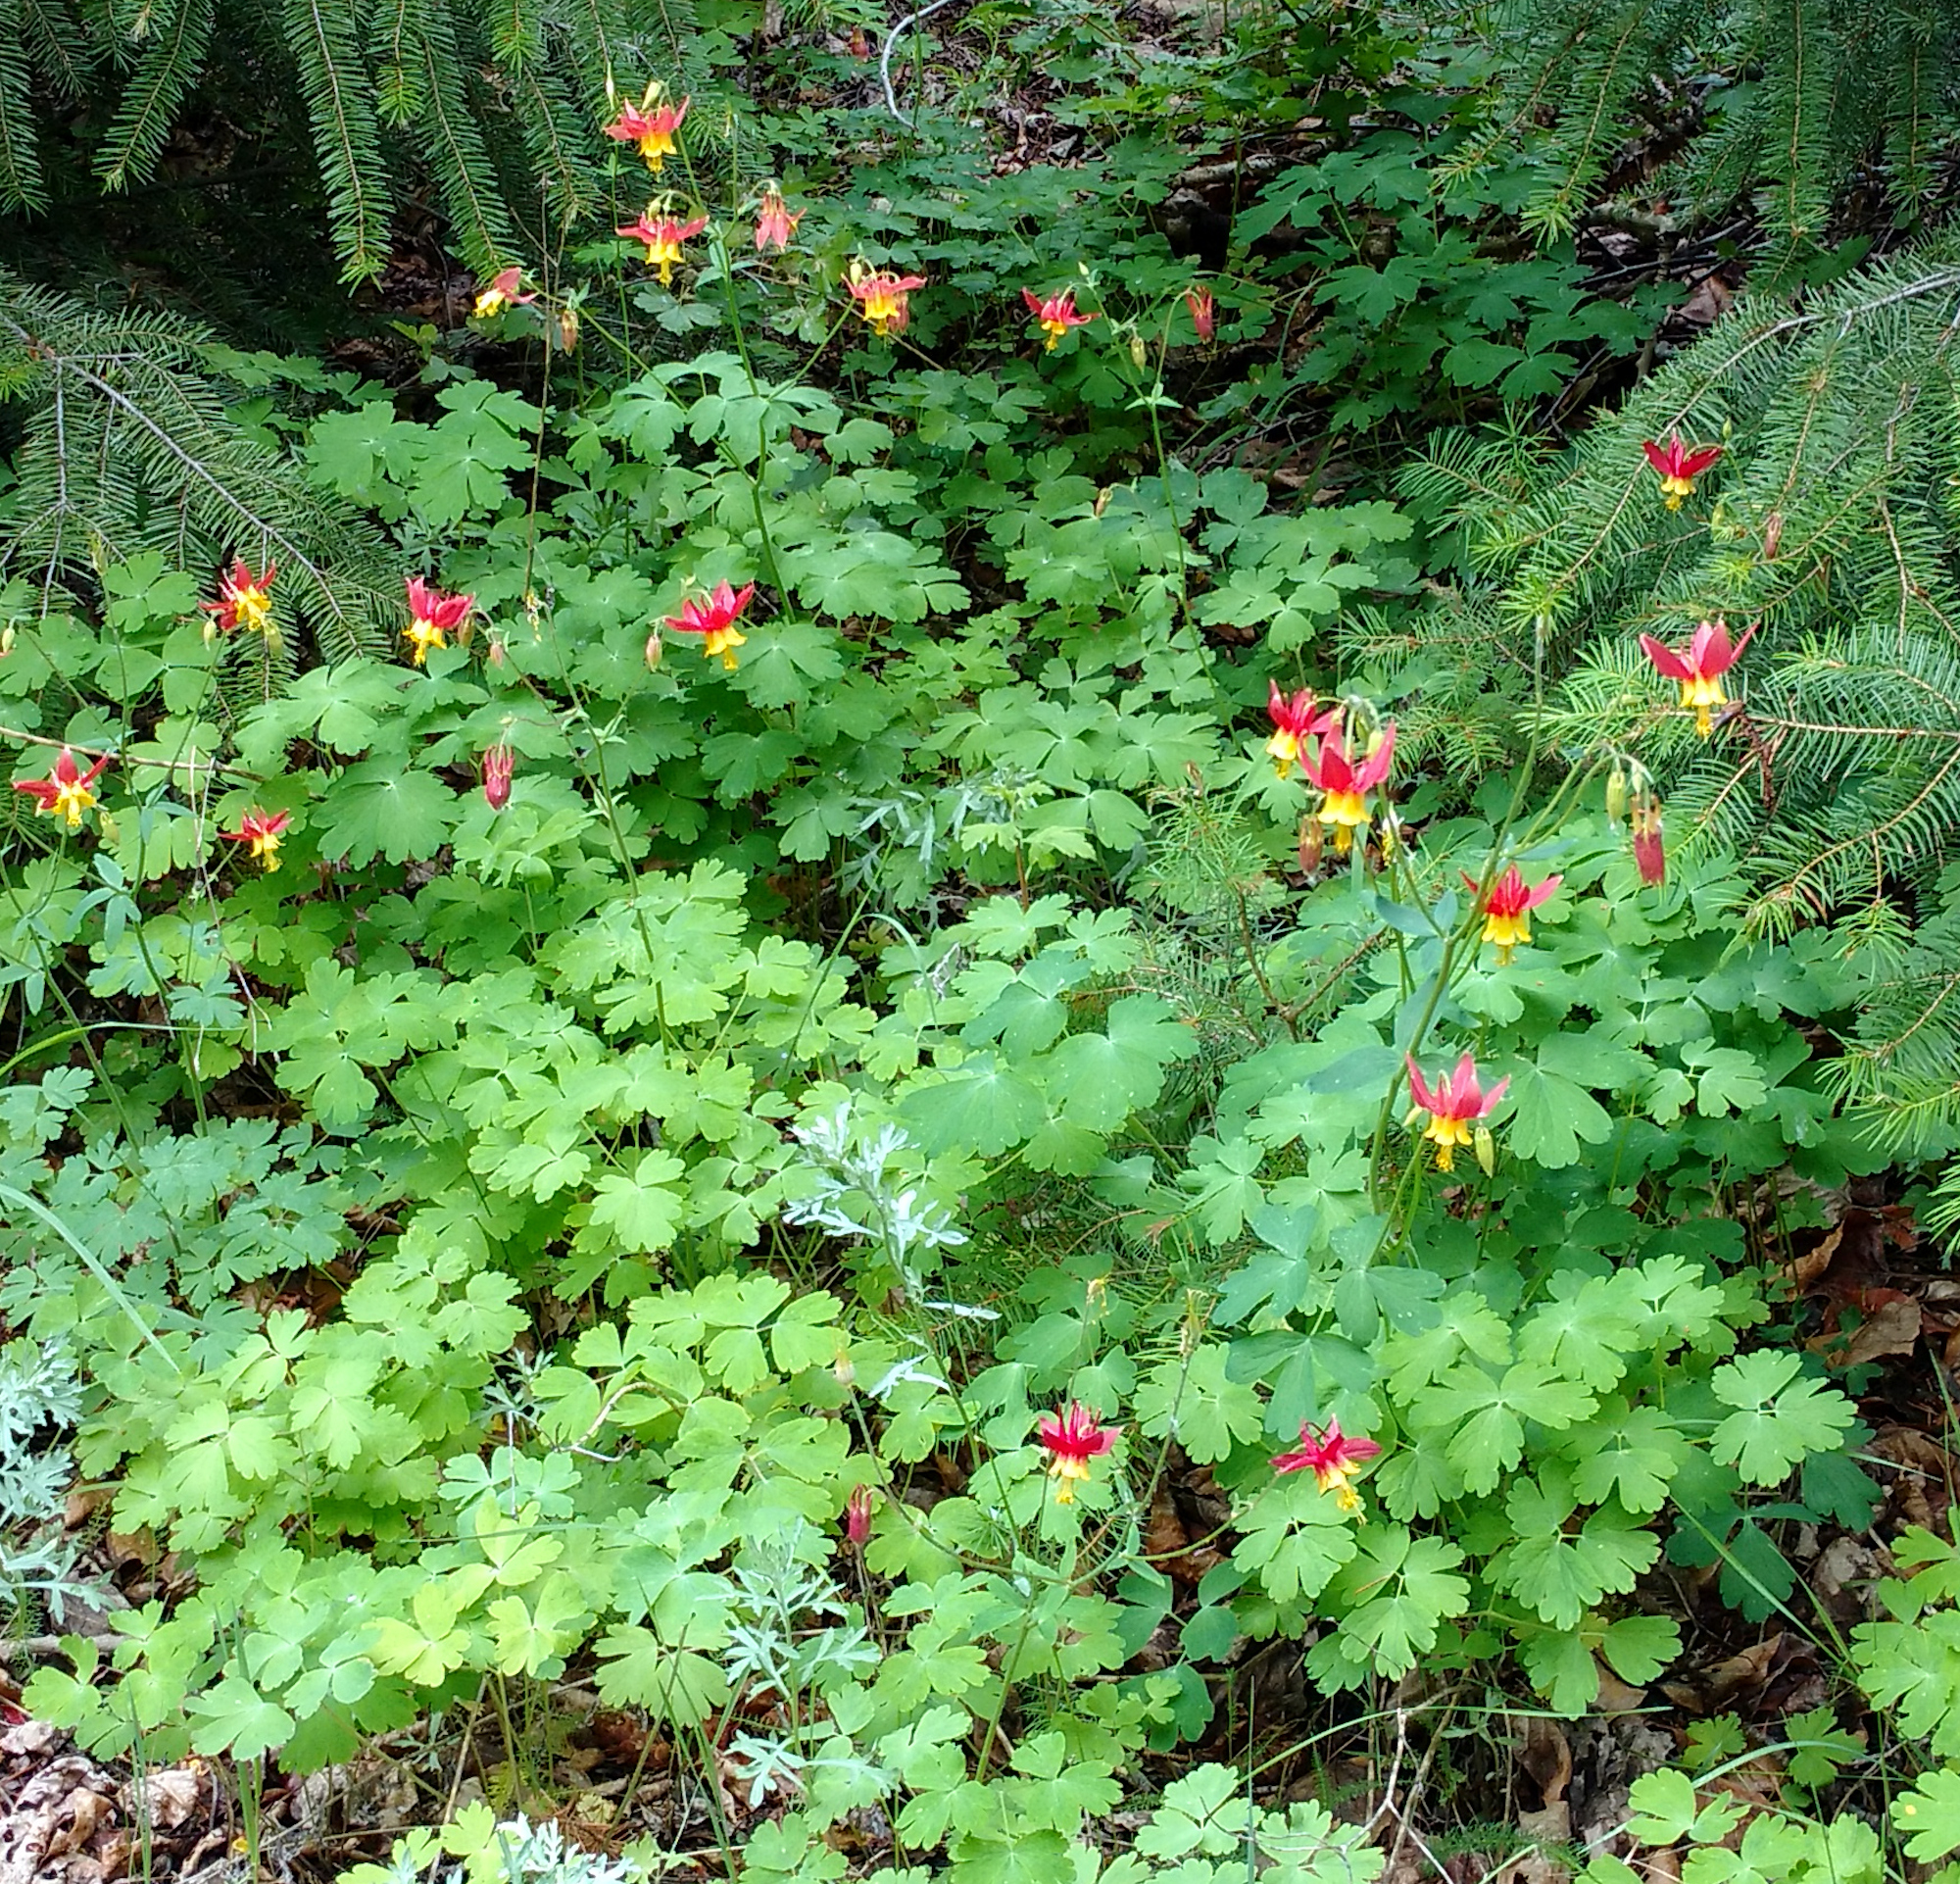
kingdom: Plantae
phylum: Tracheophyta
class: Magnoliopsida
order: Ranunculales
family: Ranunculaceae
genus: Aquilegia
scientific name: Aquilegia formosa
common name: Sitka columbine
